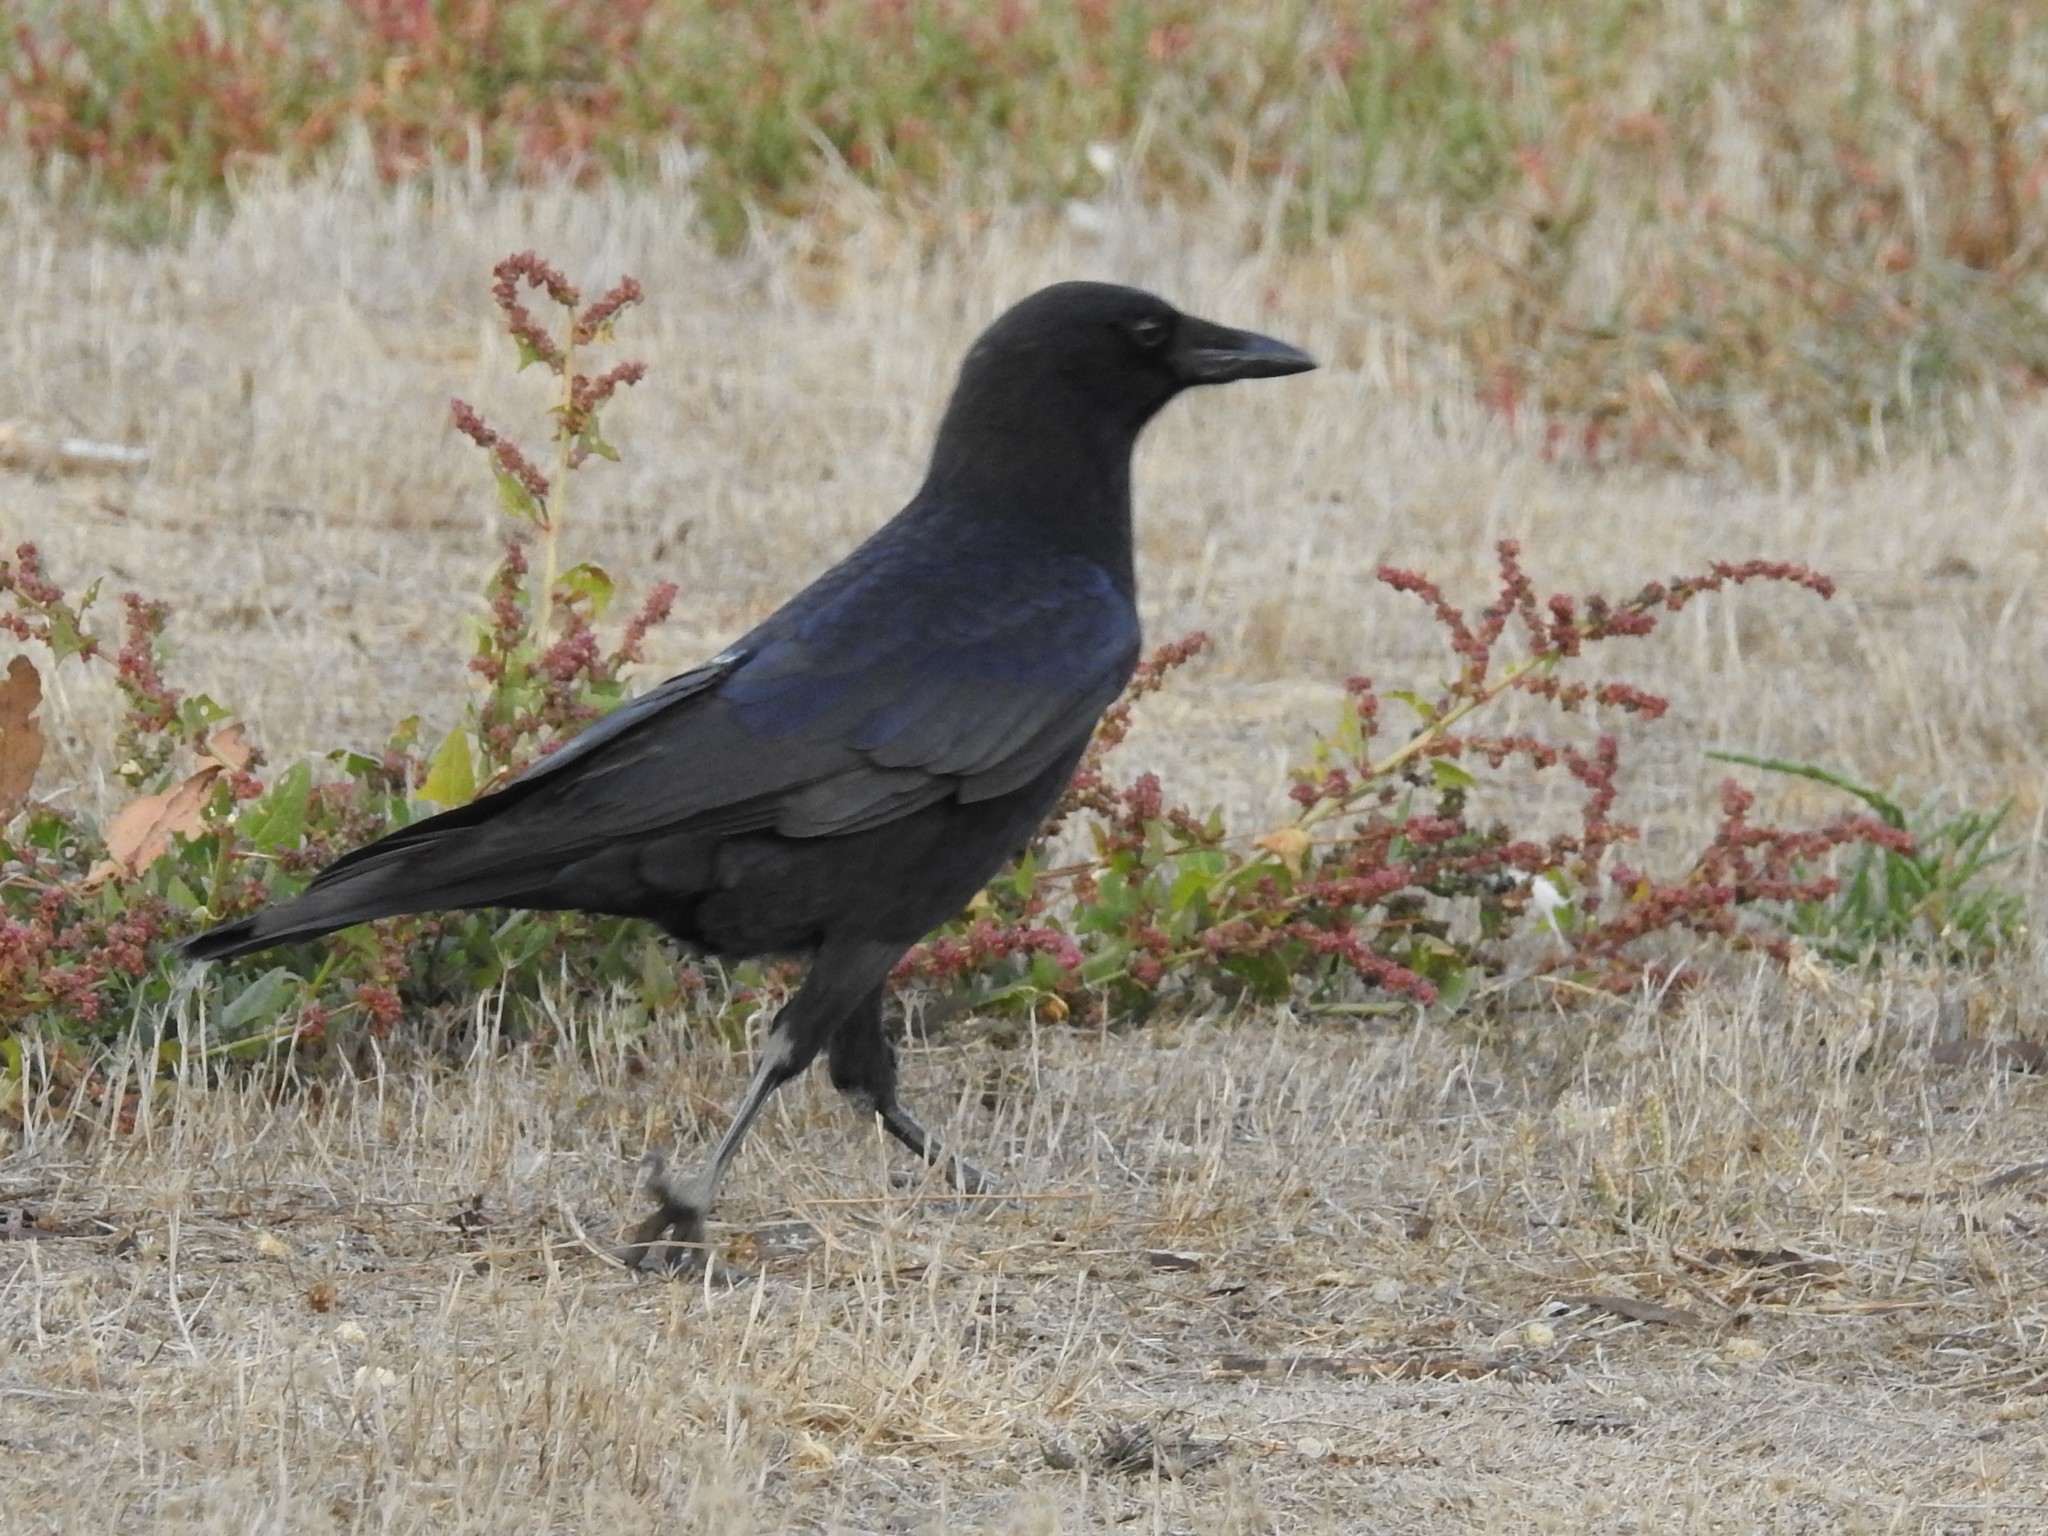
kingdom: Animalia
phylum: Chordata
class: Aves
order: Passeriformes
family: Corvidae
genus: Corvus
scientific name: Corvus brachyrhynchos
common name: American crow
